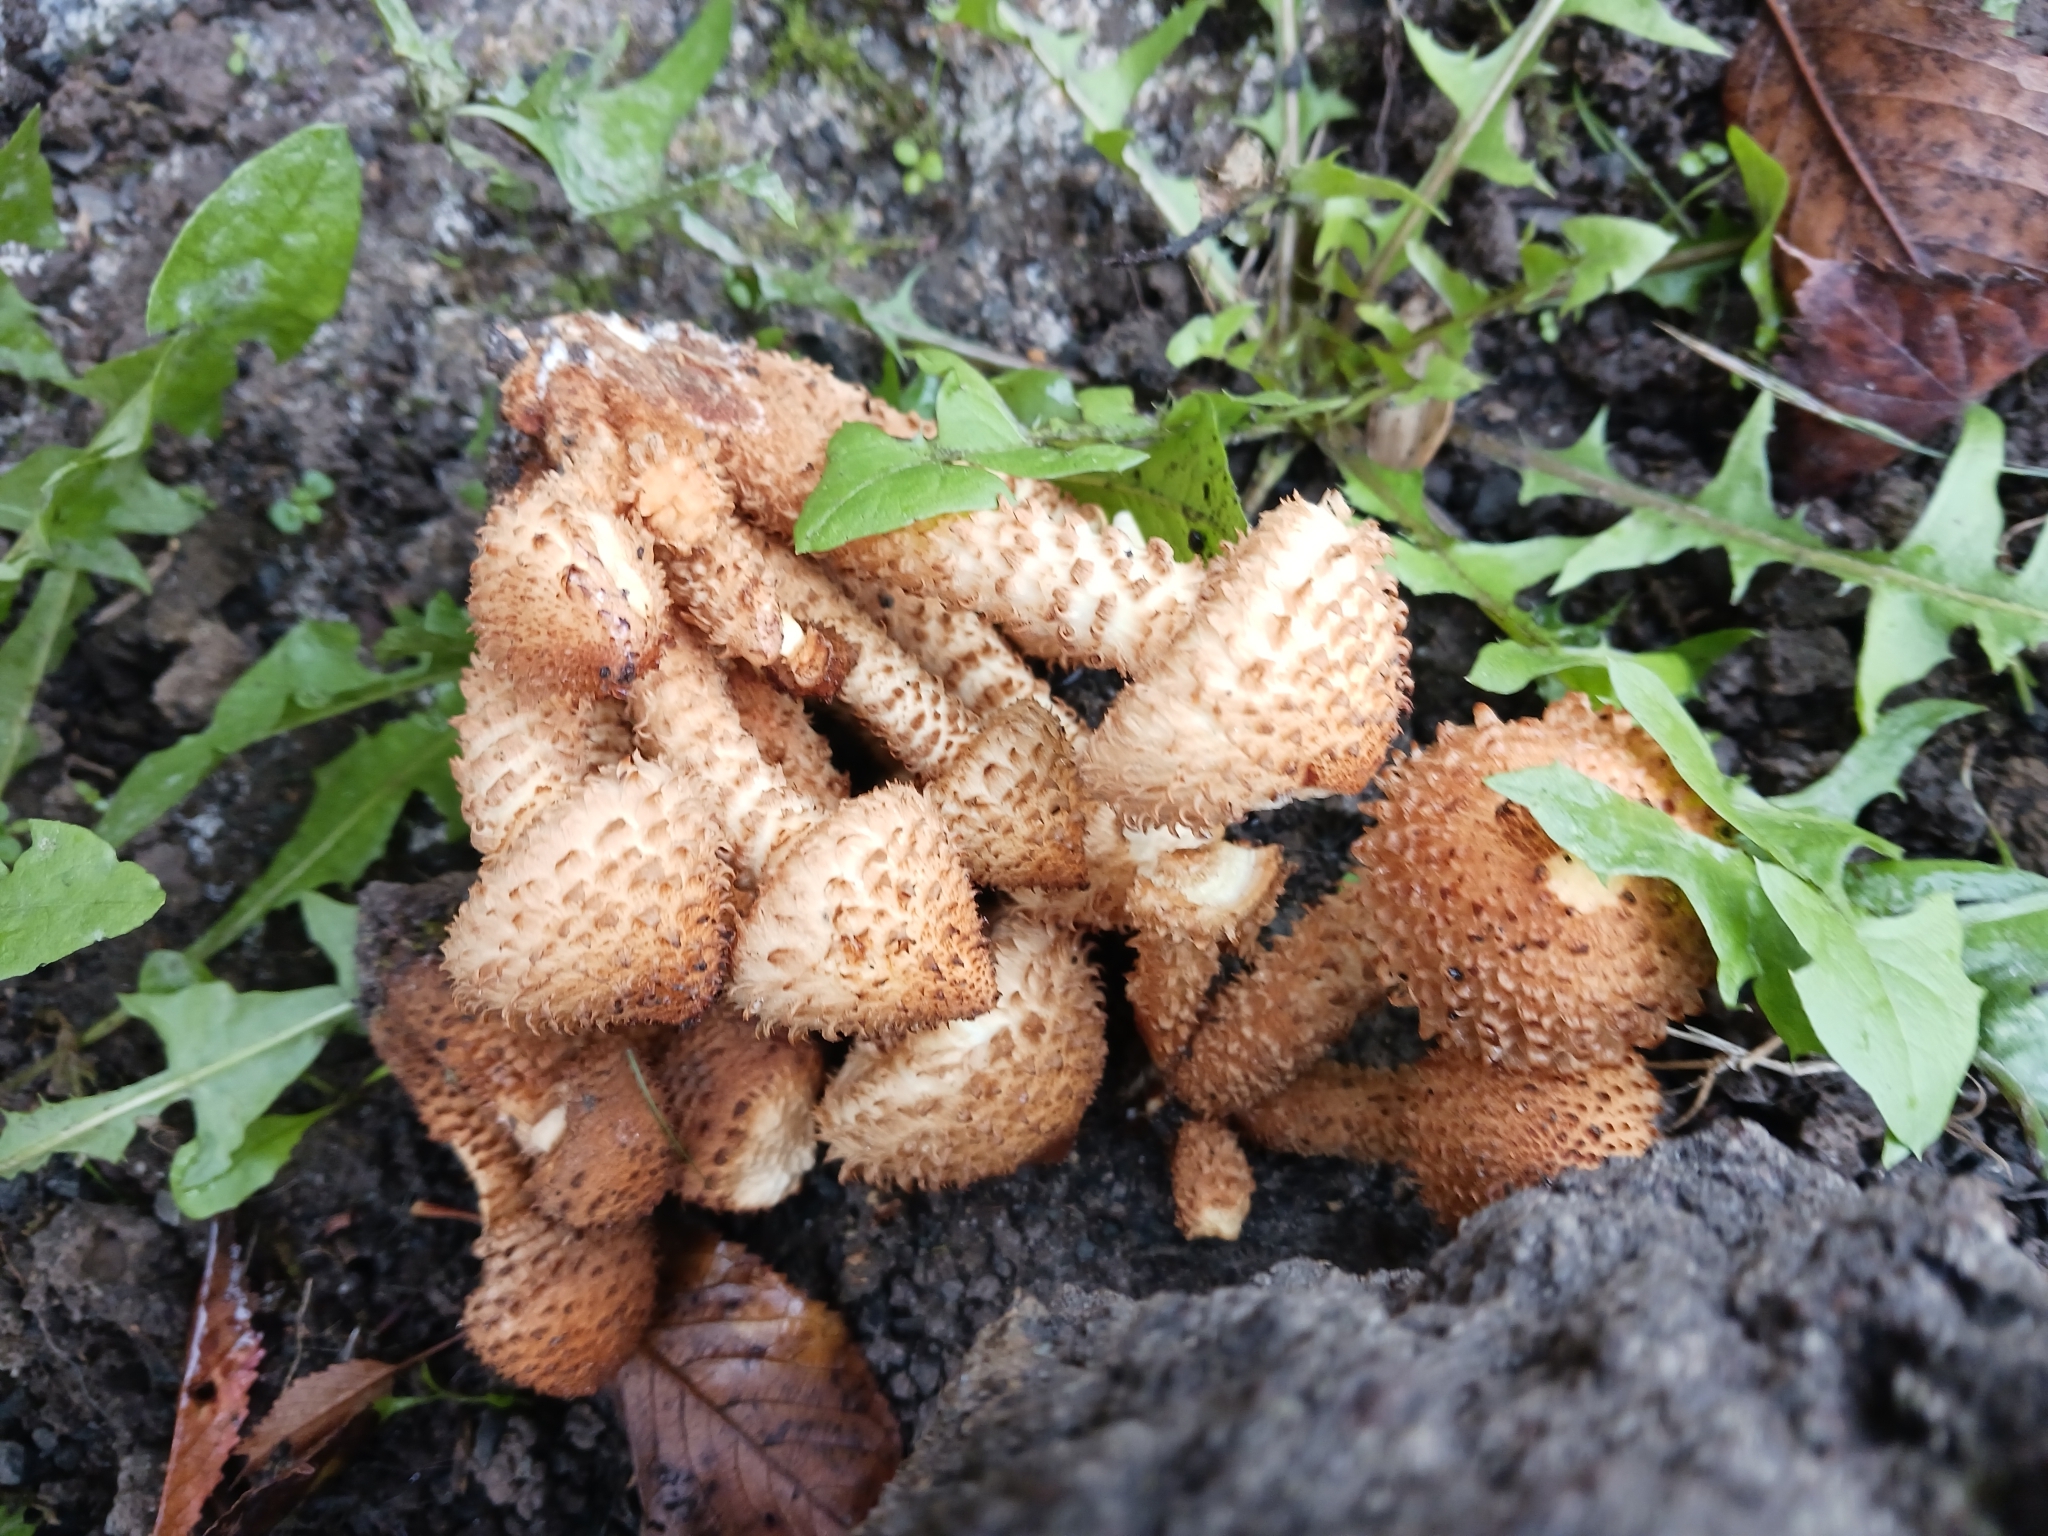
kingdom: Fungi
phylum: Basidiomycota
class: Agaricomycetes
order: Agaricales
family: Strophariaceae
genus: Pholiota
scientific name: Pholiota squarrosa
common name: Shaggy pholiota
